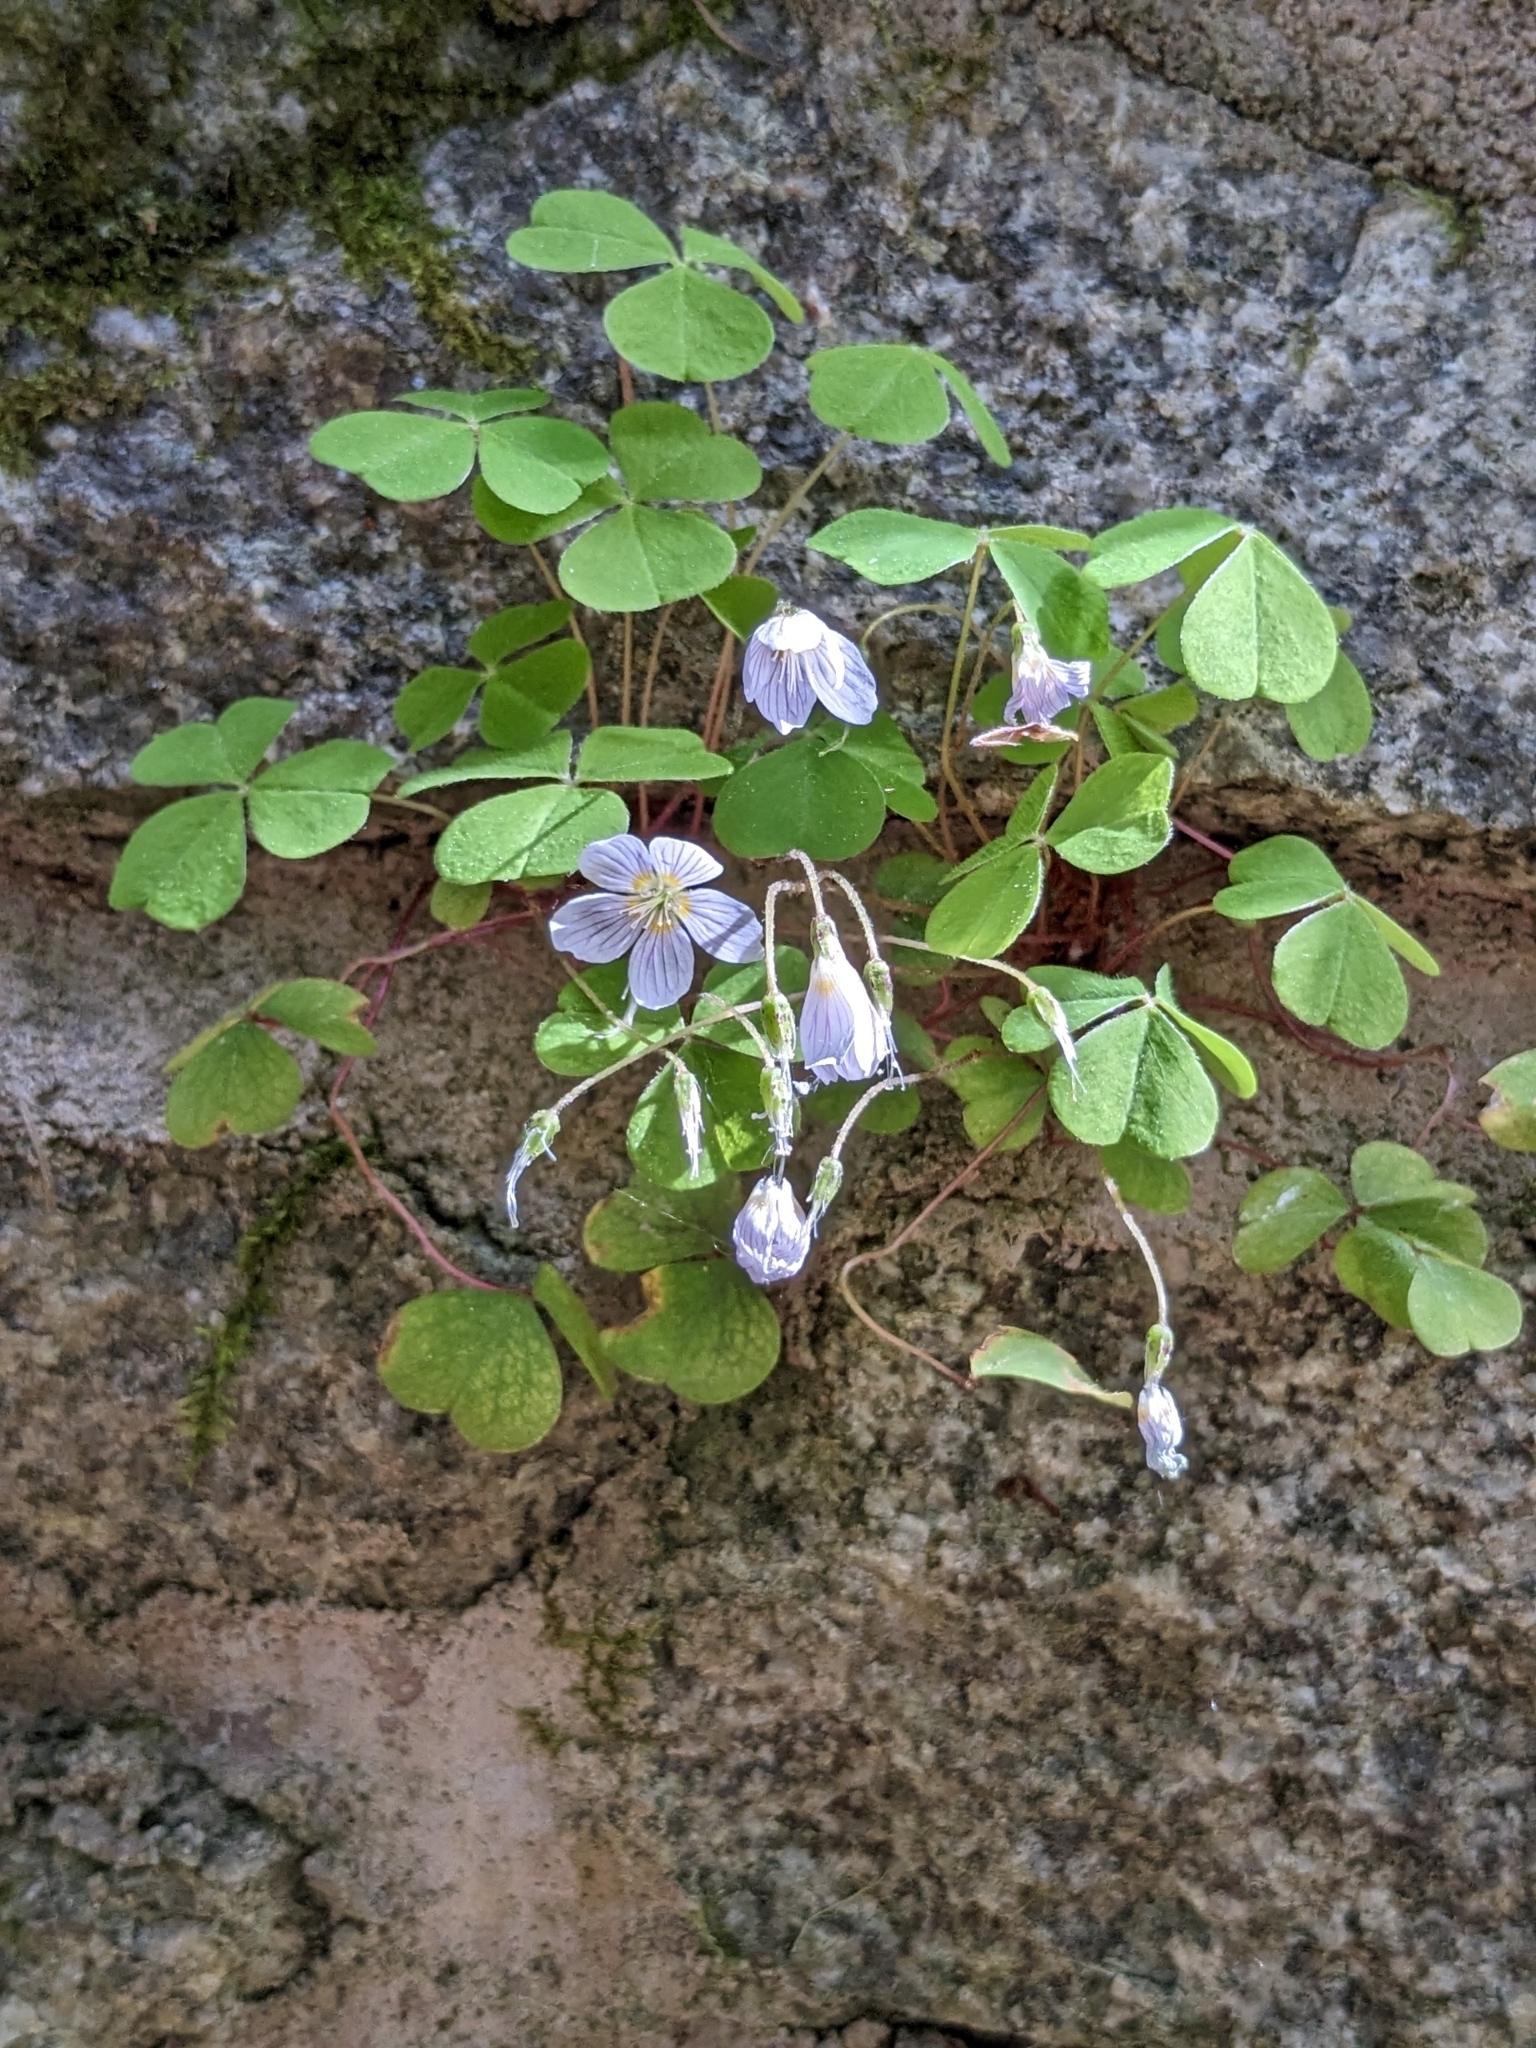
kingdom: Plantae
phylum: Tracheophyta
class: Magnoliopsida
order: Oxalidales
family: Oxalidaceae
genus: Oxalis
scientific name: Oxalis acetosella
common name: Wood-sorrel
